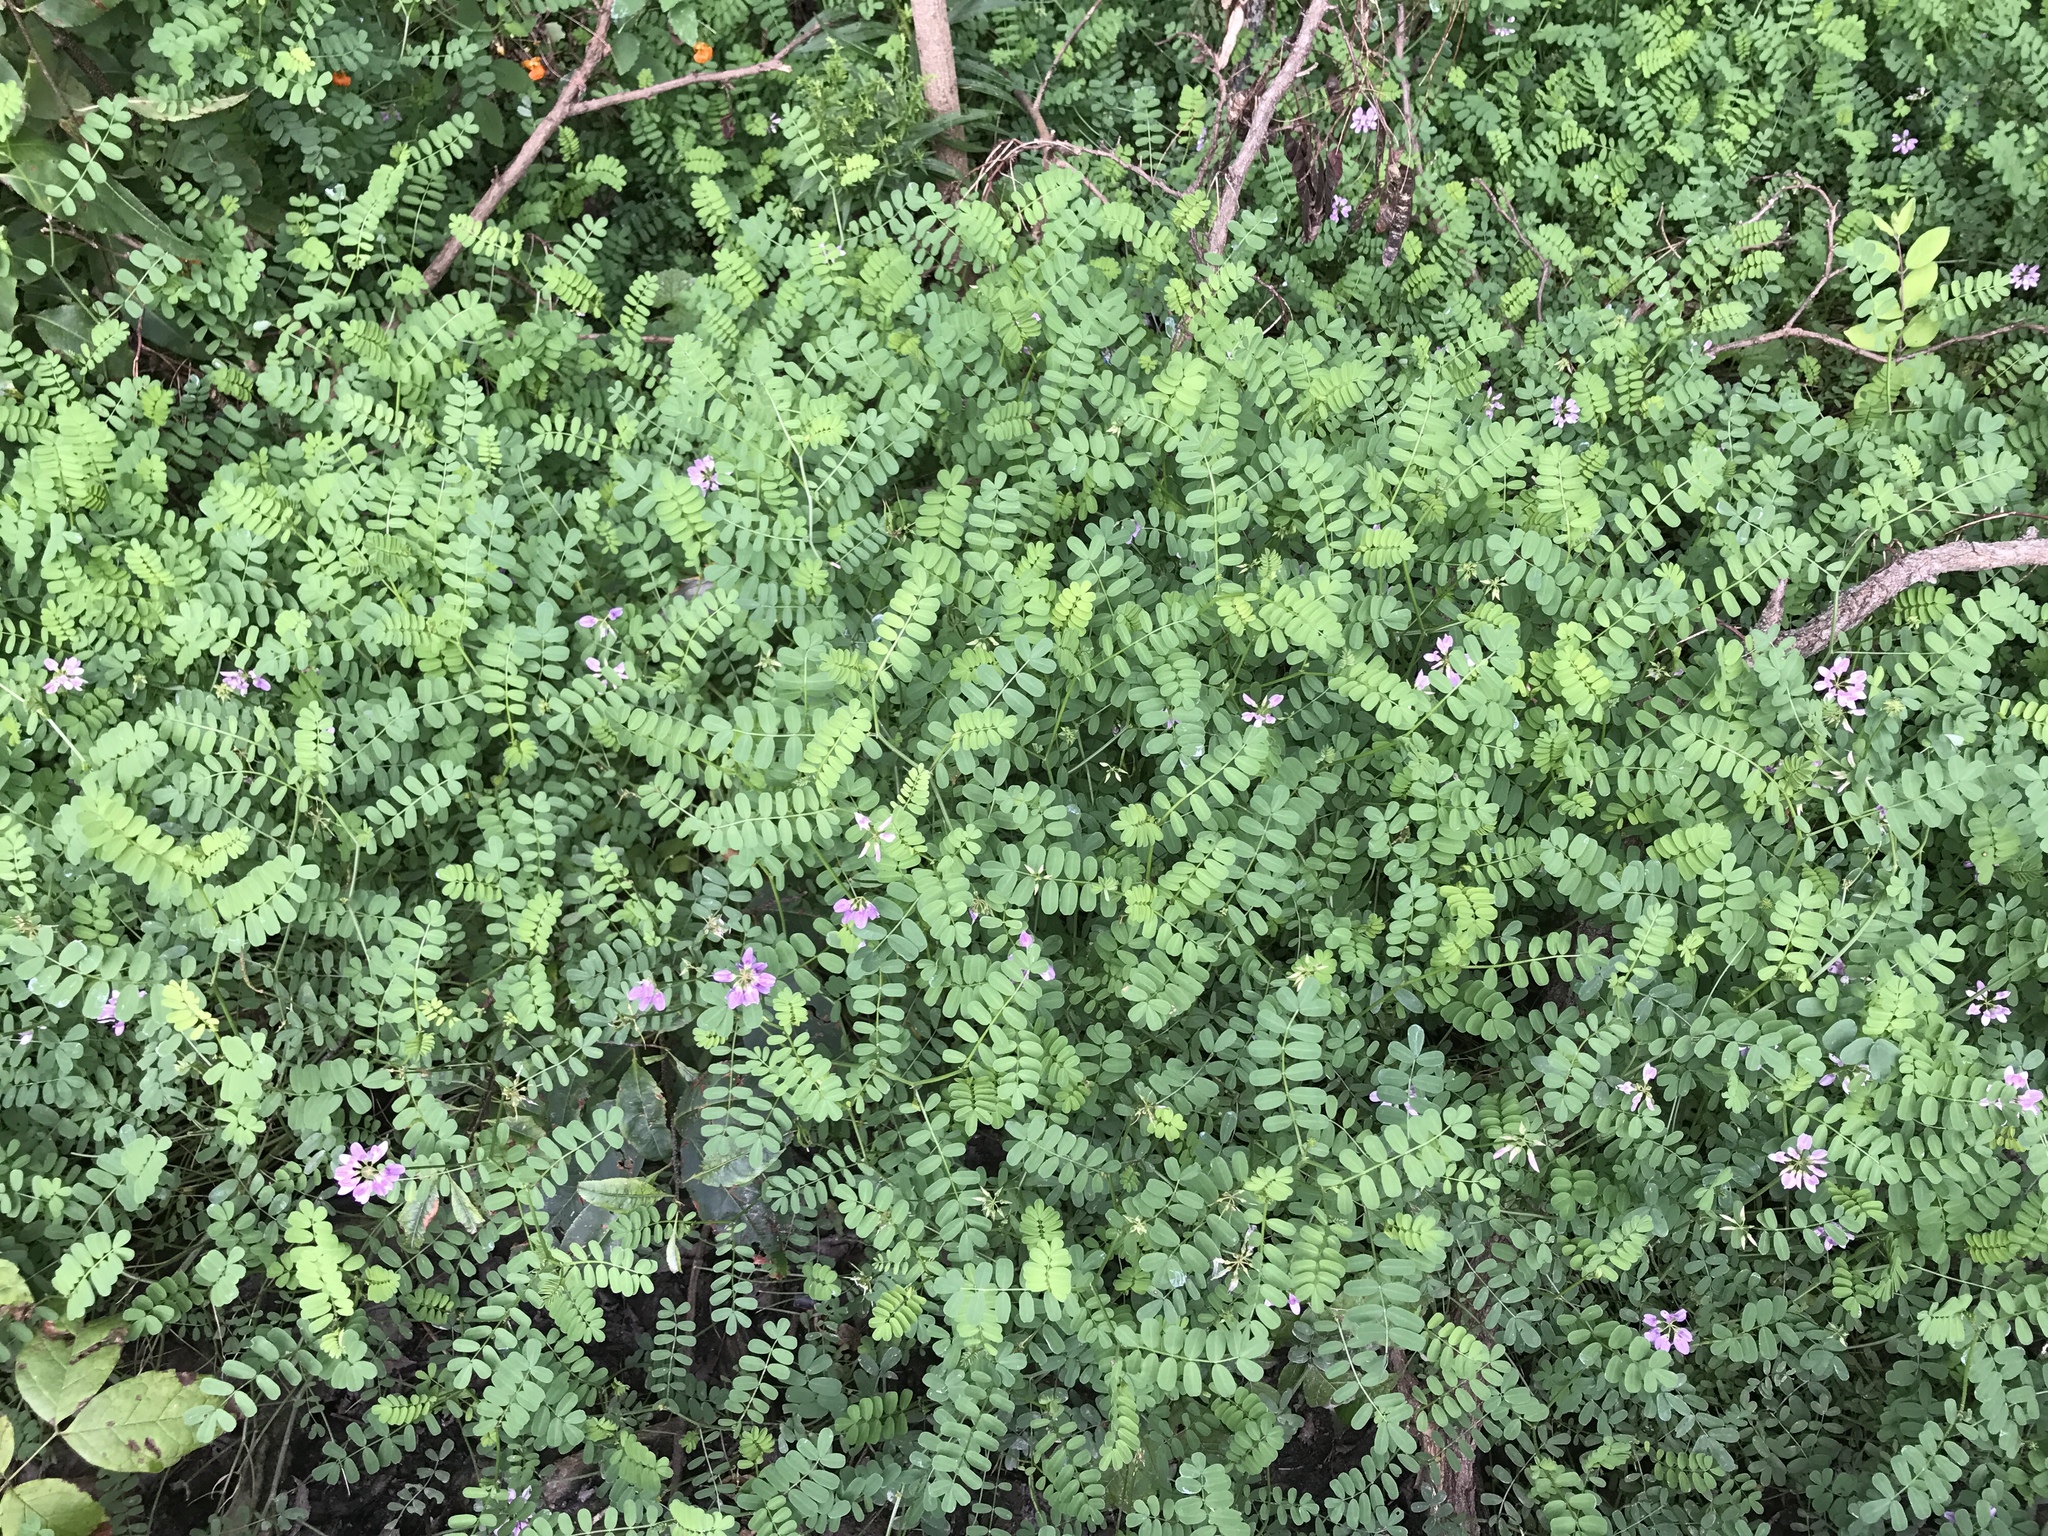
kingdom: Plantae
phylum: Tracheophyta
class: Magnoliopsida
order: Fabales
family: Fabaceae
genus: Coronilla
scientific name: Coronilla varia
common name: Crownvetch
